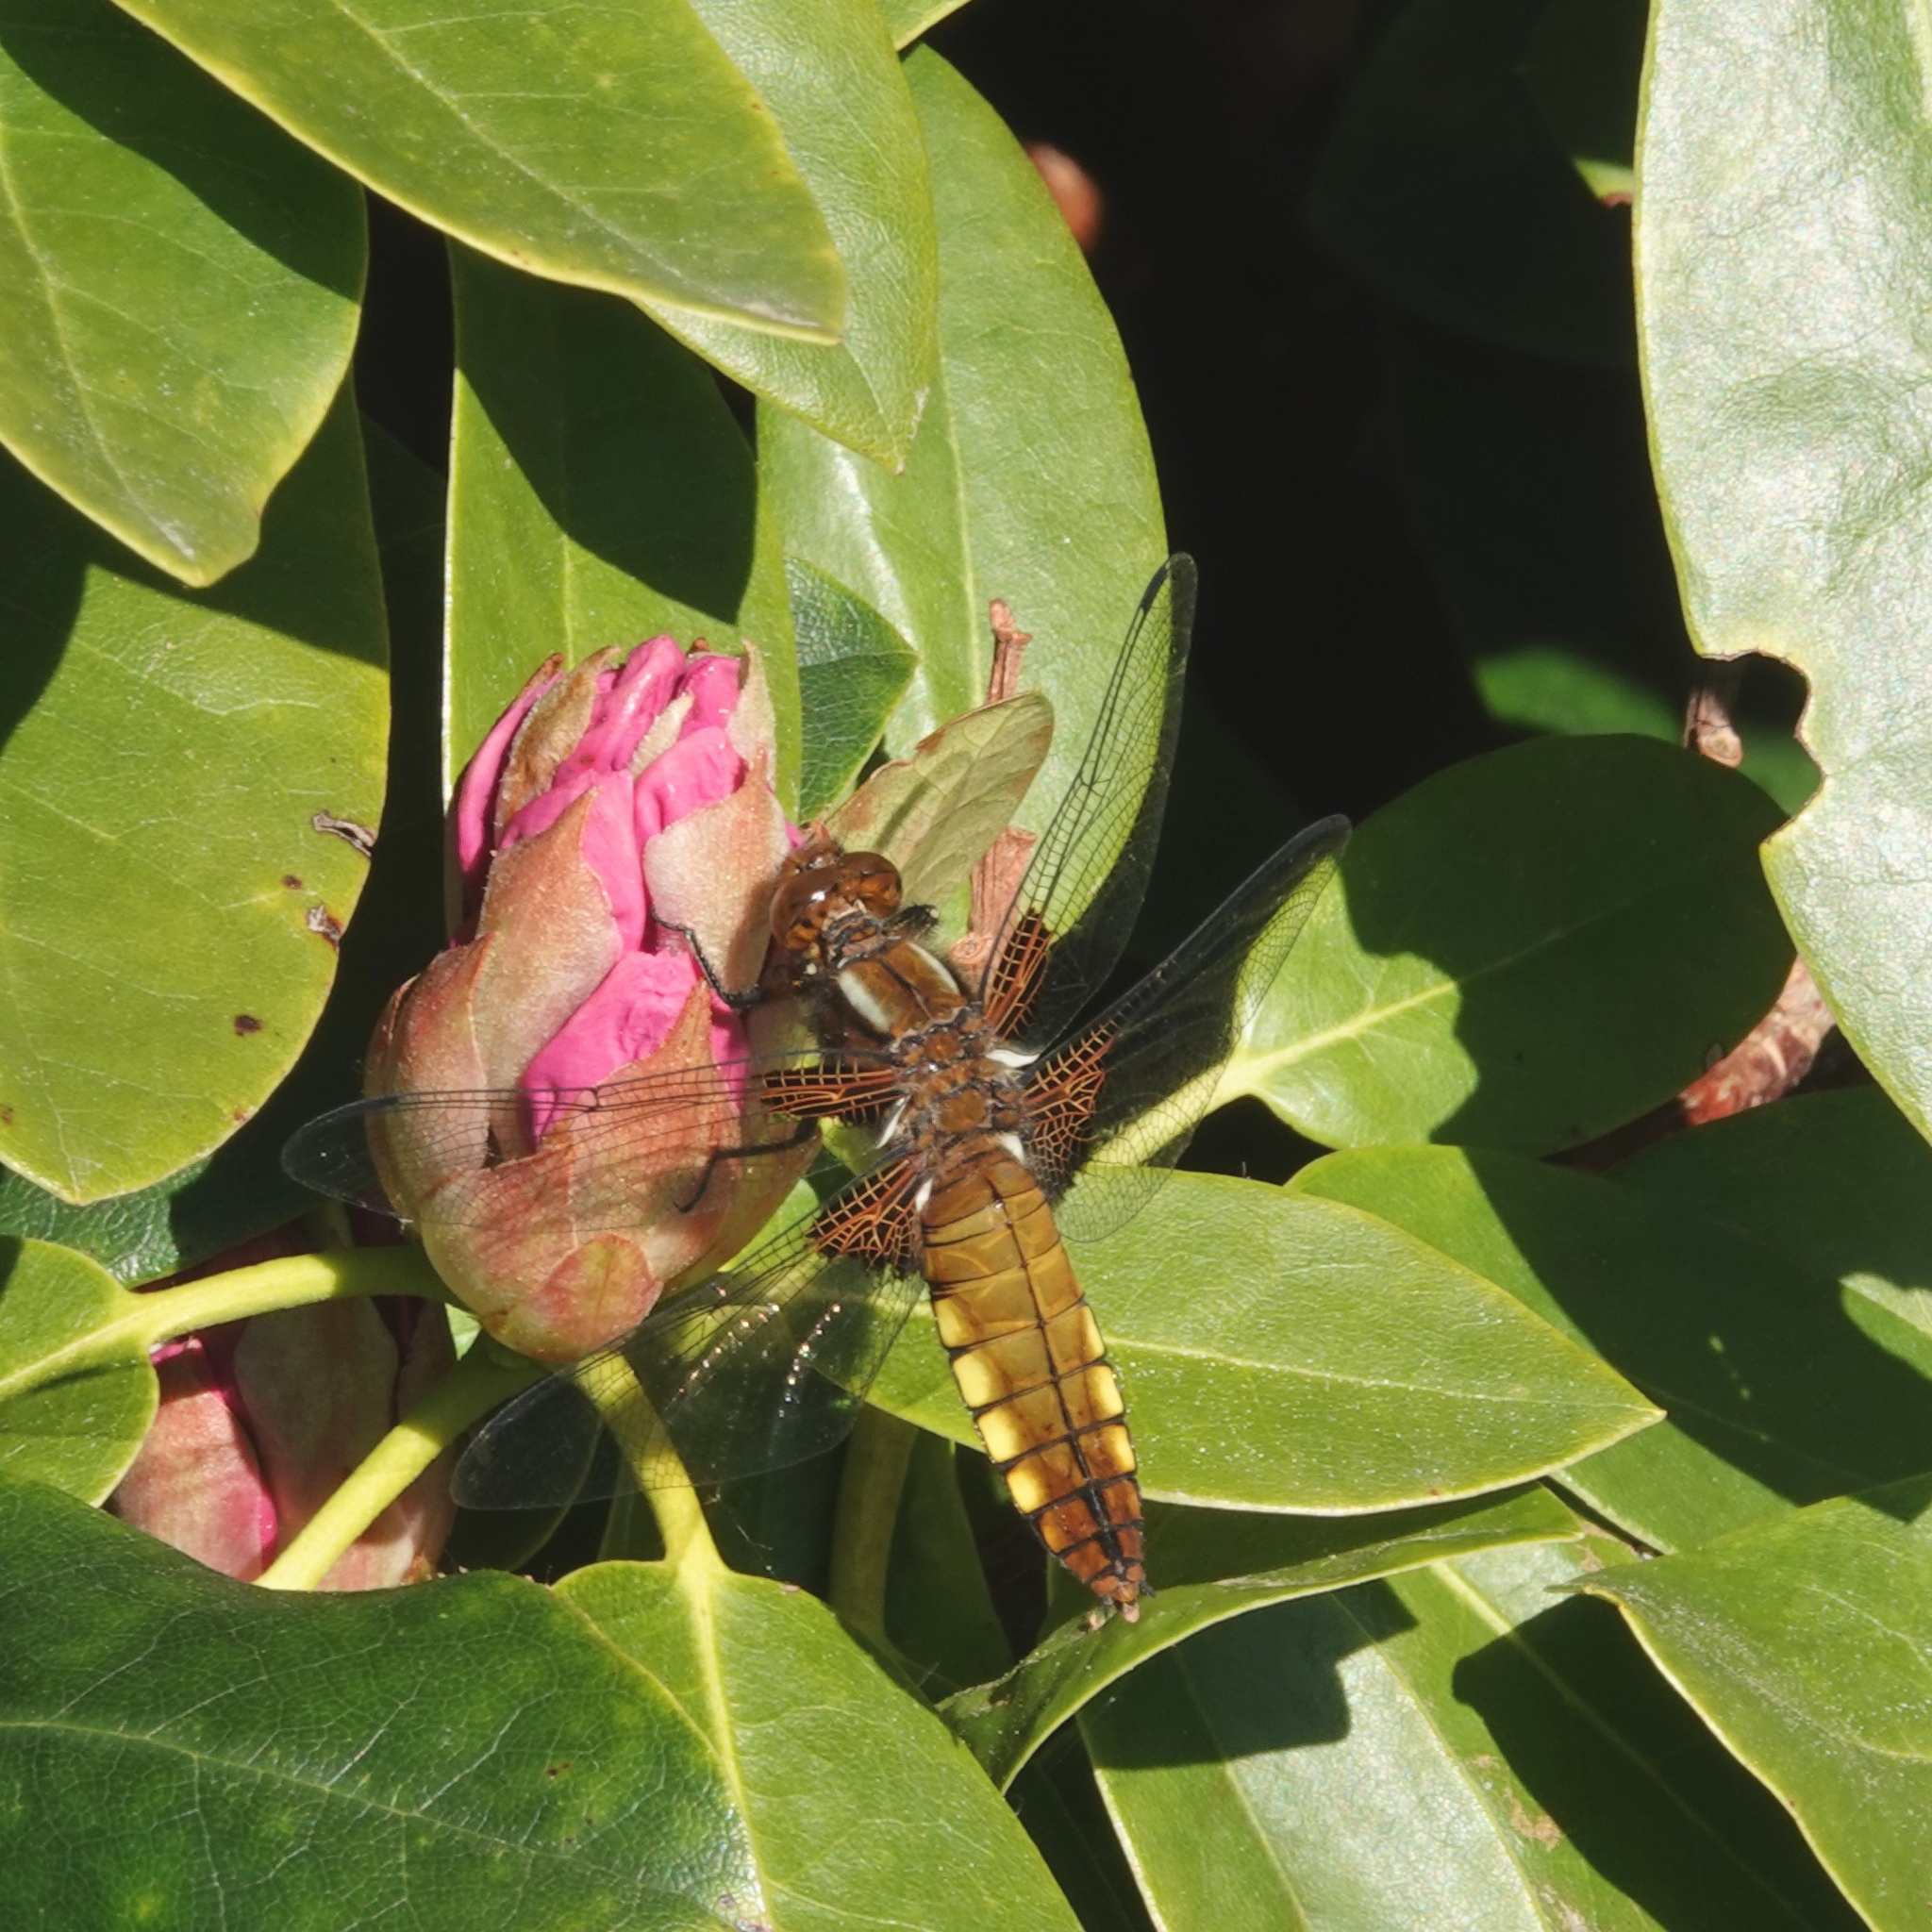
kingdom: Animalia
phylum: Arthropoda
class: Insecta
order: Odonata
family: Libellulidae
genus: Libellula
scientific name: Libellula depressa
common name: Broad-bodied chaser
